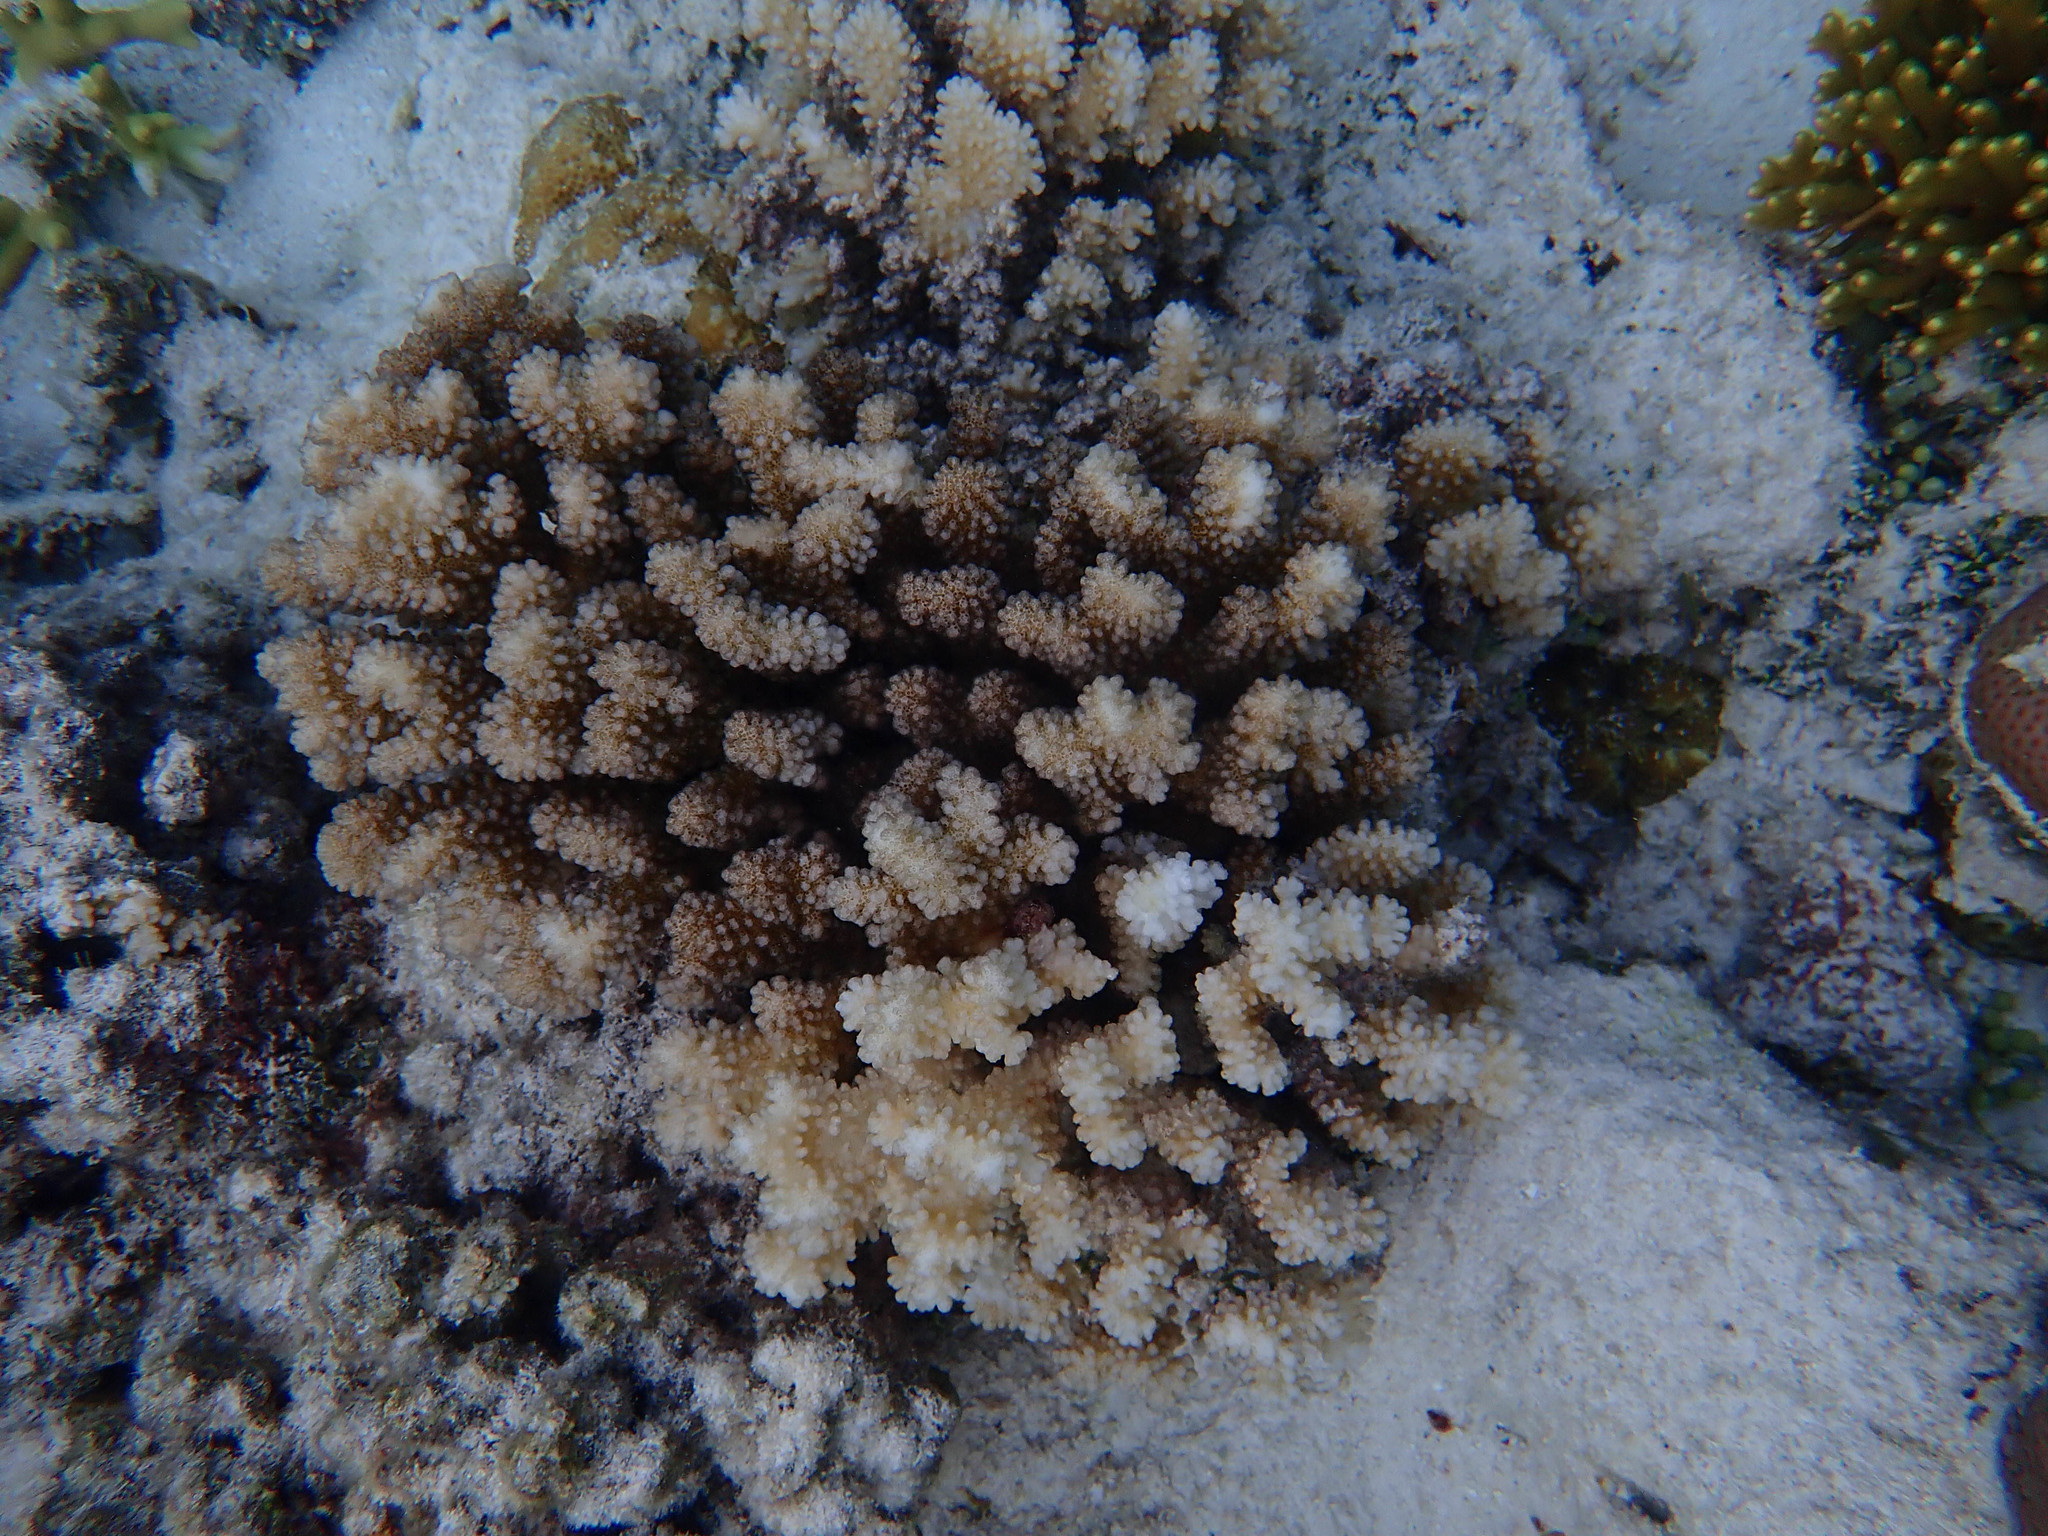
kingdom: Animalia
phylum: Cnidaria
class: Anthozoa
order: Scleractinia
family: Pocilloporidae
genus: Pocillopora
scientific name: Pocillopora verrucosa
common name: Cauliflower coral
